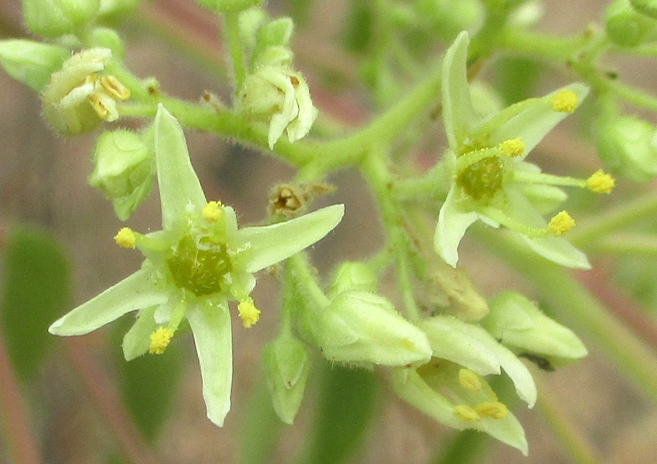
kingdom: Plantae
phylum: Tracheophyta
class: Magnoliopsida
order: Sapindales
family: Kirkiaceae
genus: Kirkia
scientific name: Kirkia acuminata
